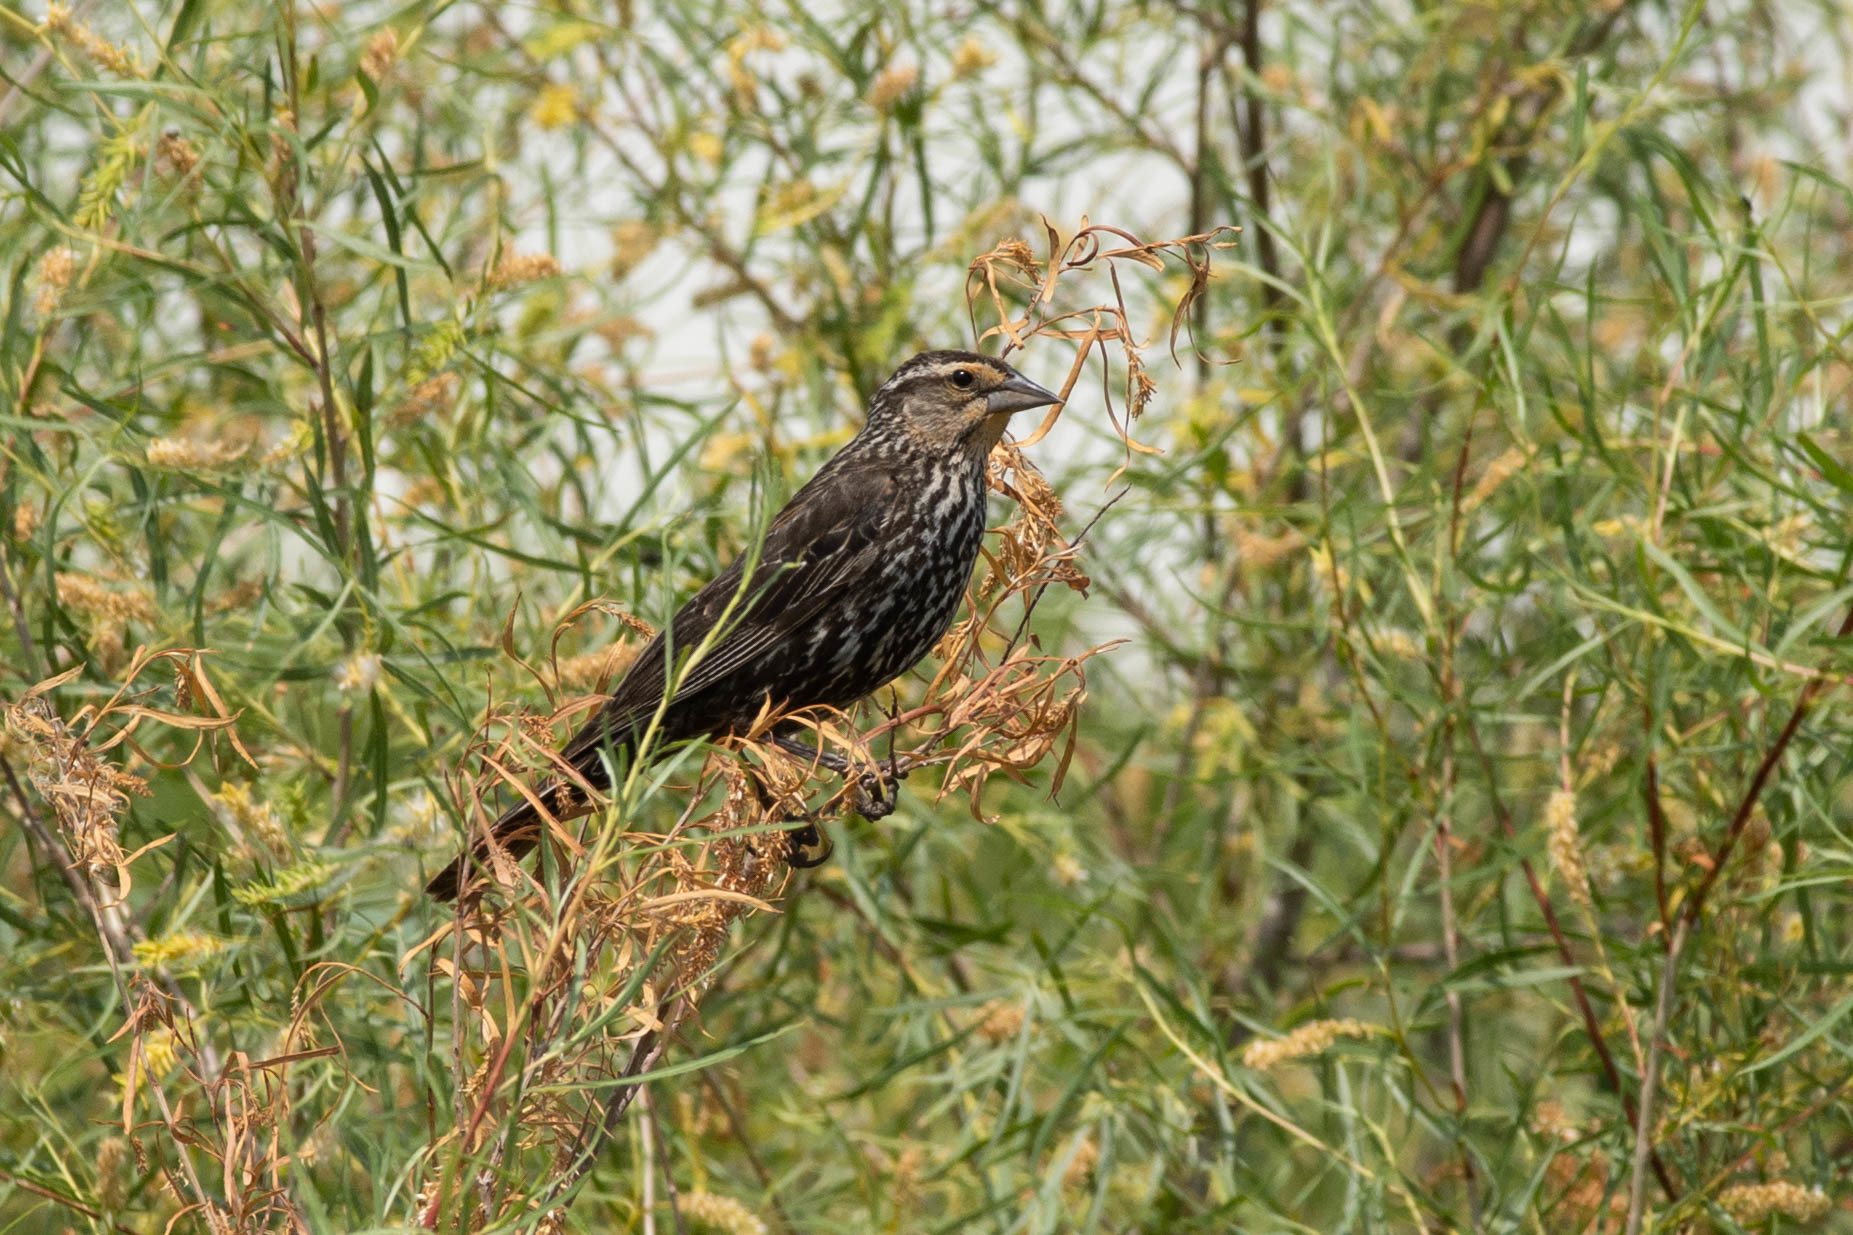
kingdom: Animalia
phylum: Chordata
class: Aves
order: Passeriformes
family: Icteridae
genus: Agelaius
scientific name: Agelaius phoeniceus
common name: Red-winged blackbird
